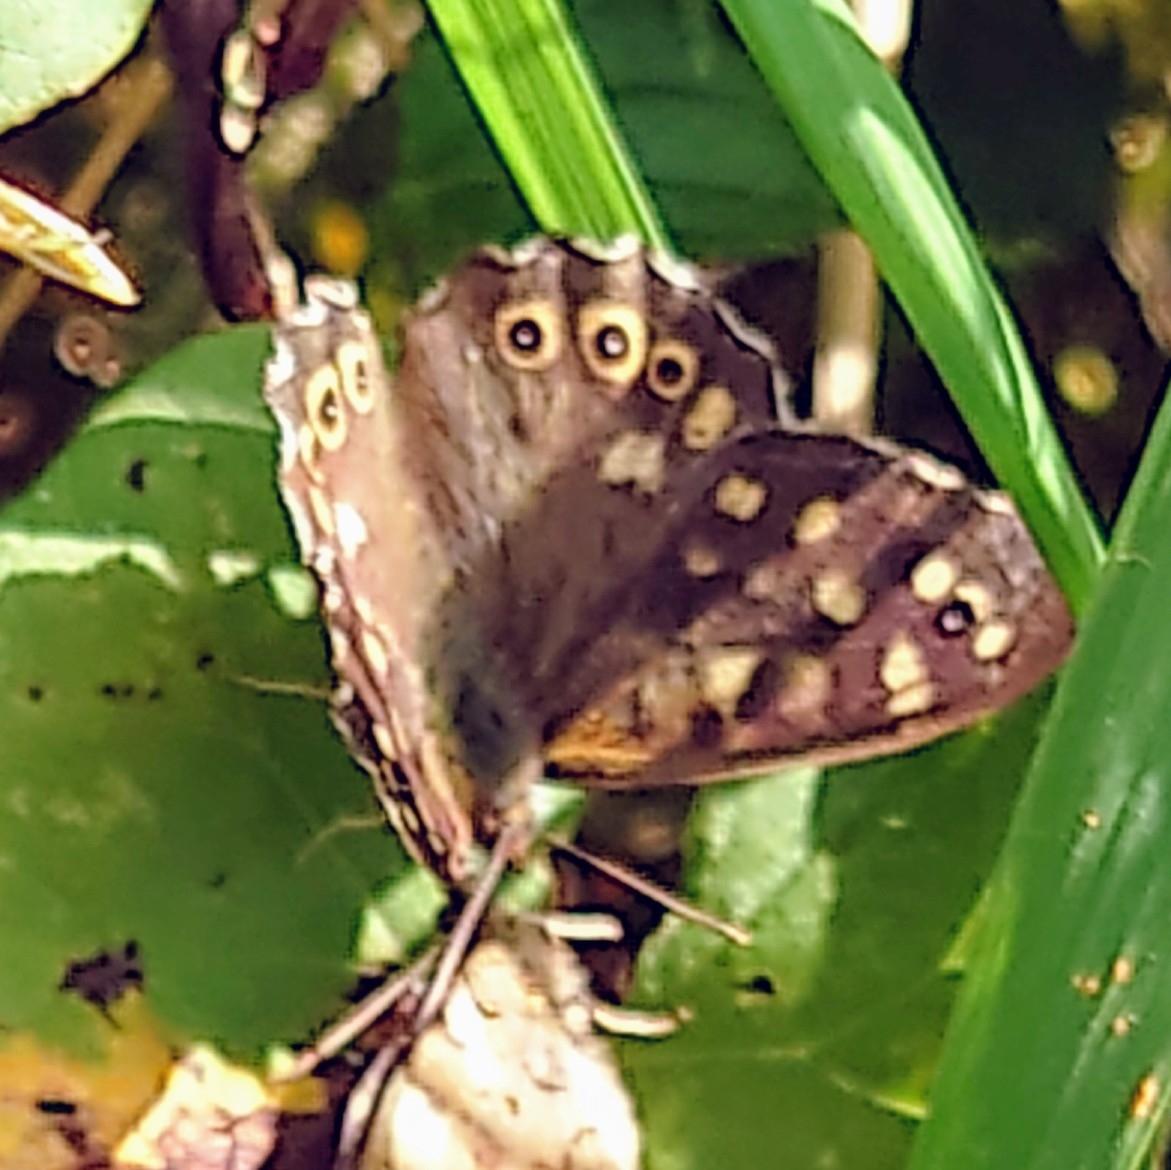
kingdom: Animalia
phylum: Arthropoda
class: Insecta
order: Lepidoptera
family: Nymphalidae
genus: Pararge
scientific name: Pararge aegeria
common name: Speckled wood
